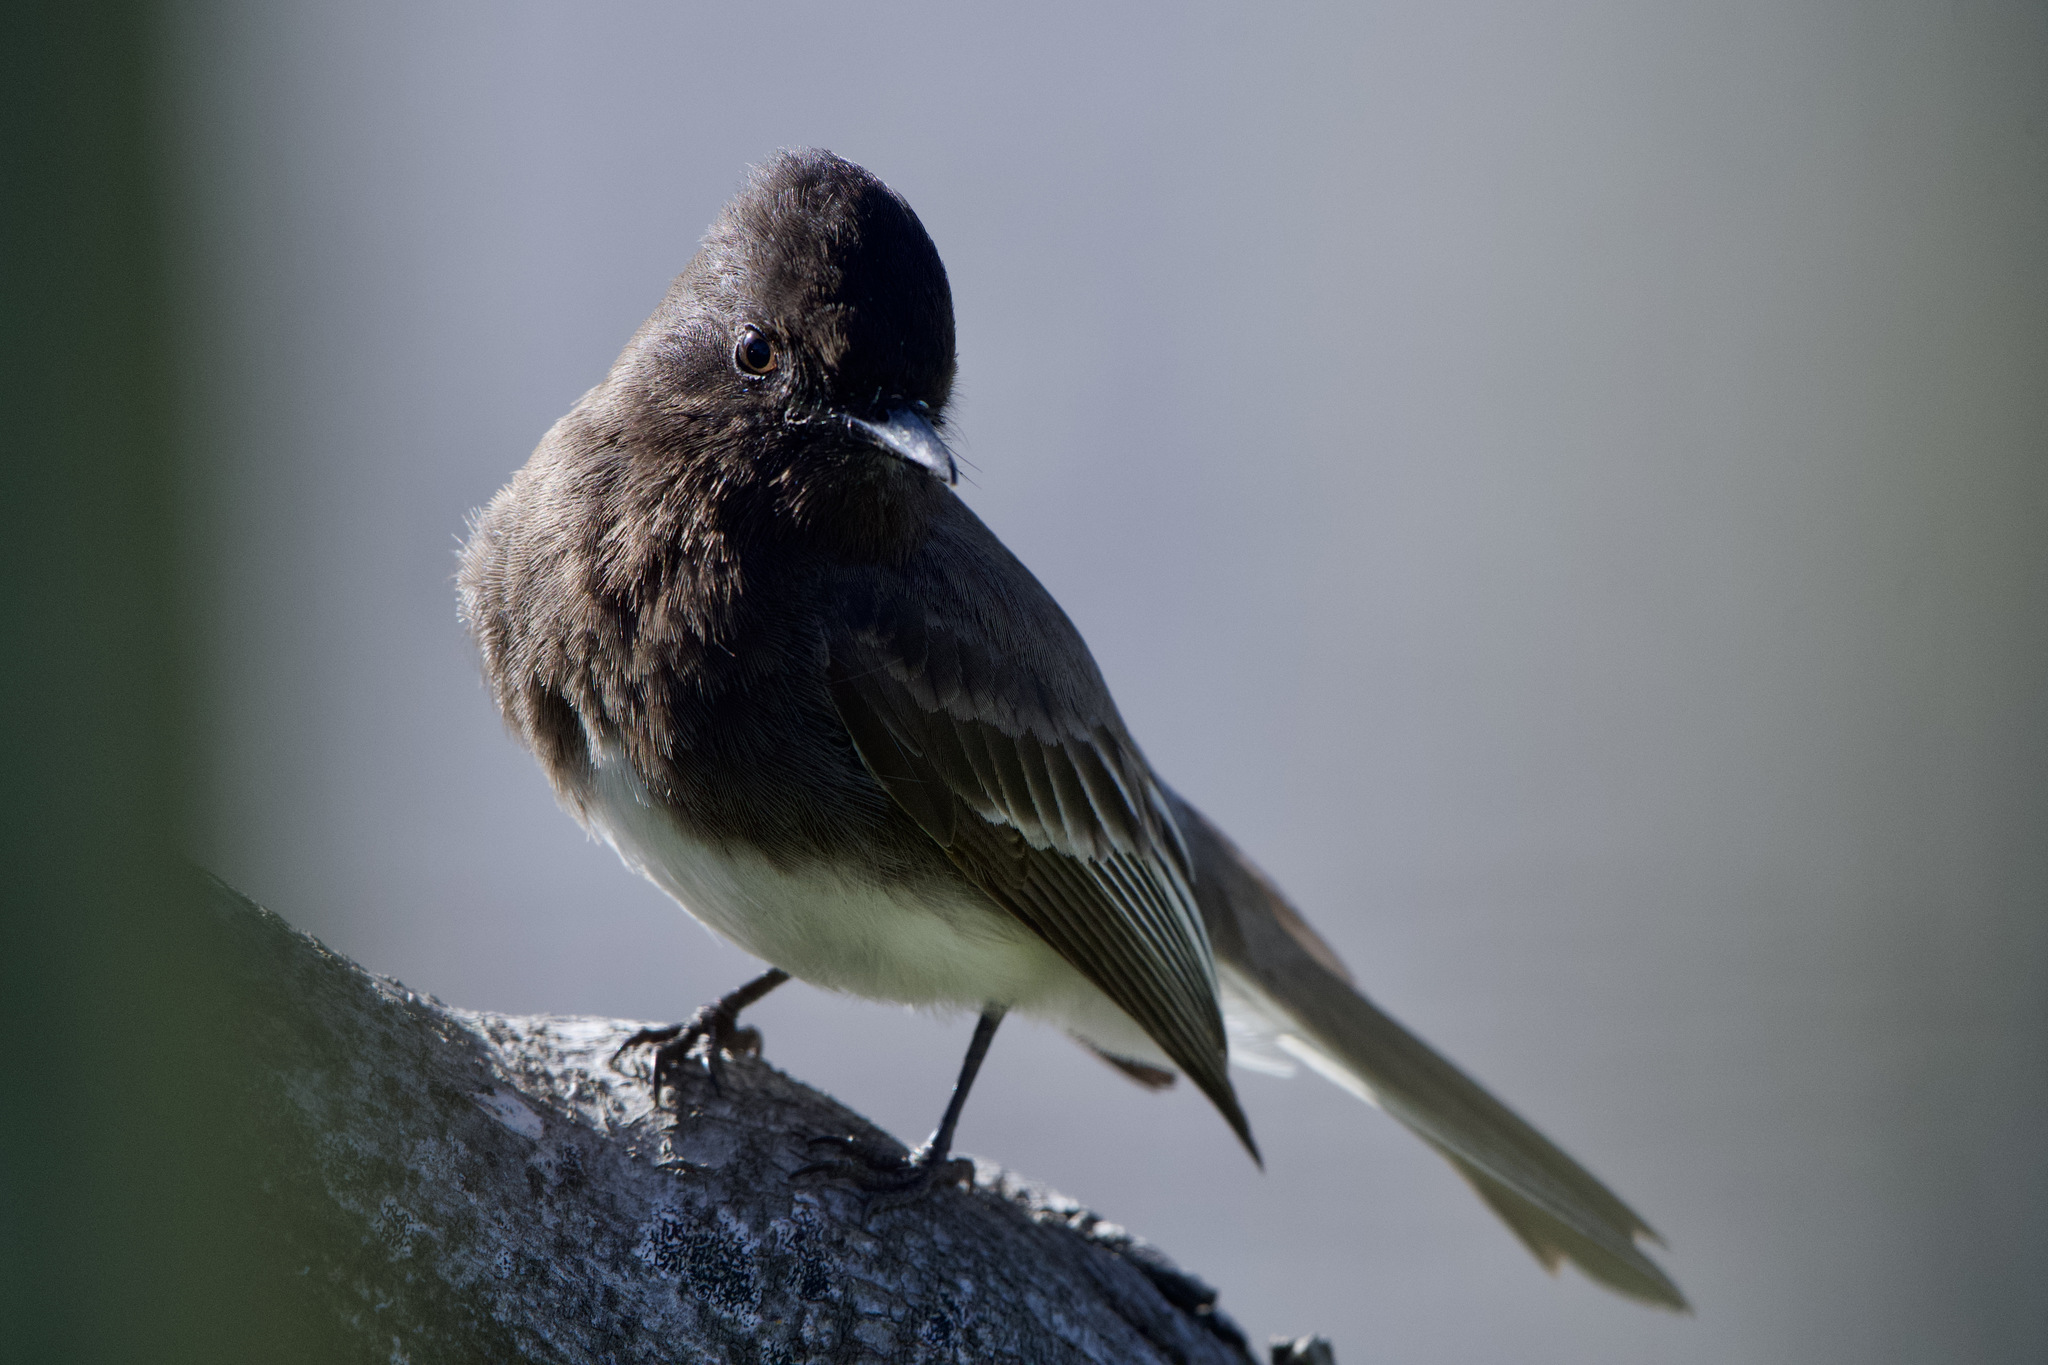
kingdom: Animalia
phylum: Chordata
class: Aves
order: Passeriformes
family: Tyrannidae
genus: Sayornis
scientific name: Sayornis nigricans
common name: Black phoebe
